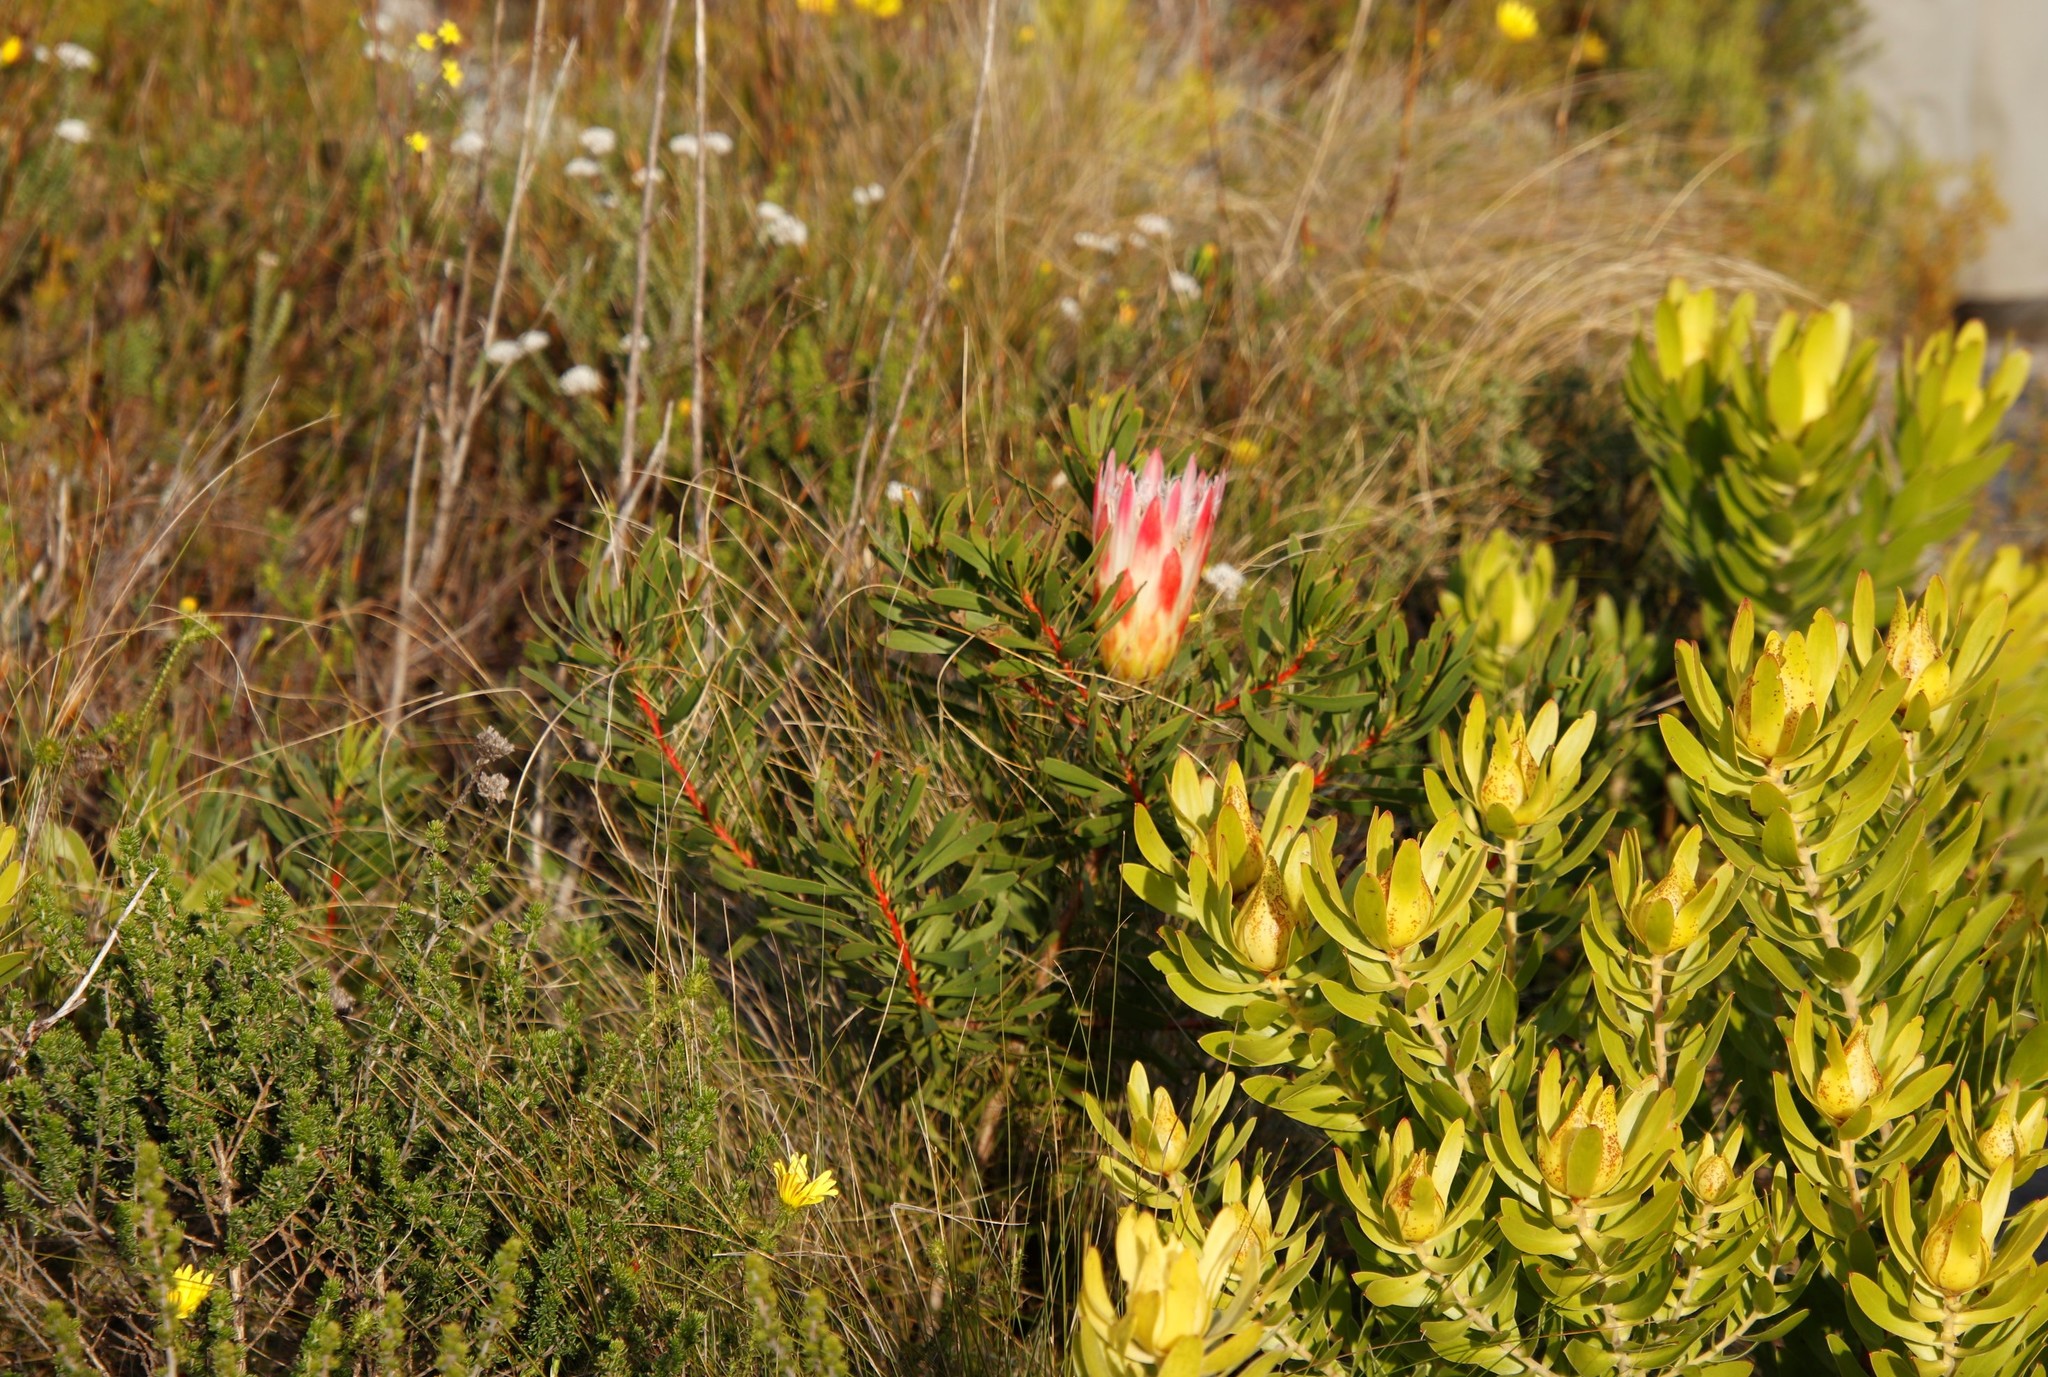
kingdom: Plantae
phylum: Tracheophyta
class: Magnoliopsida
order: Proteales
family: Proteaceae
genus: Protea
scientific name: Protea repens
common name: Sugarbush
